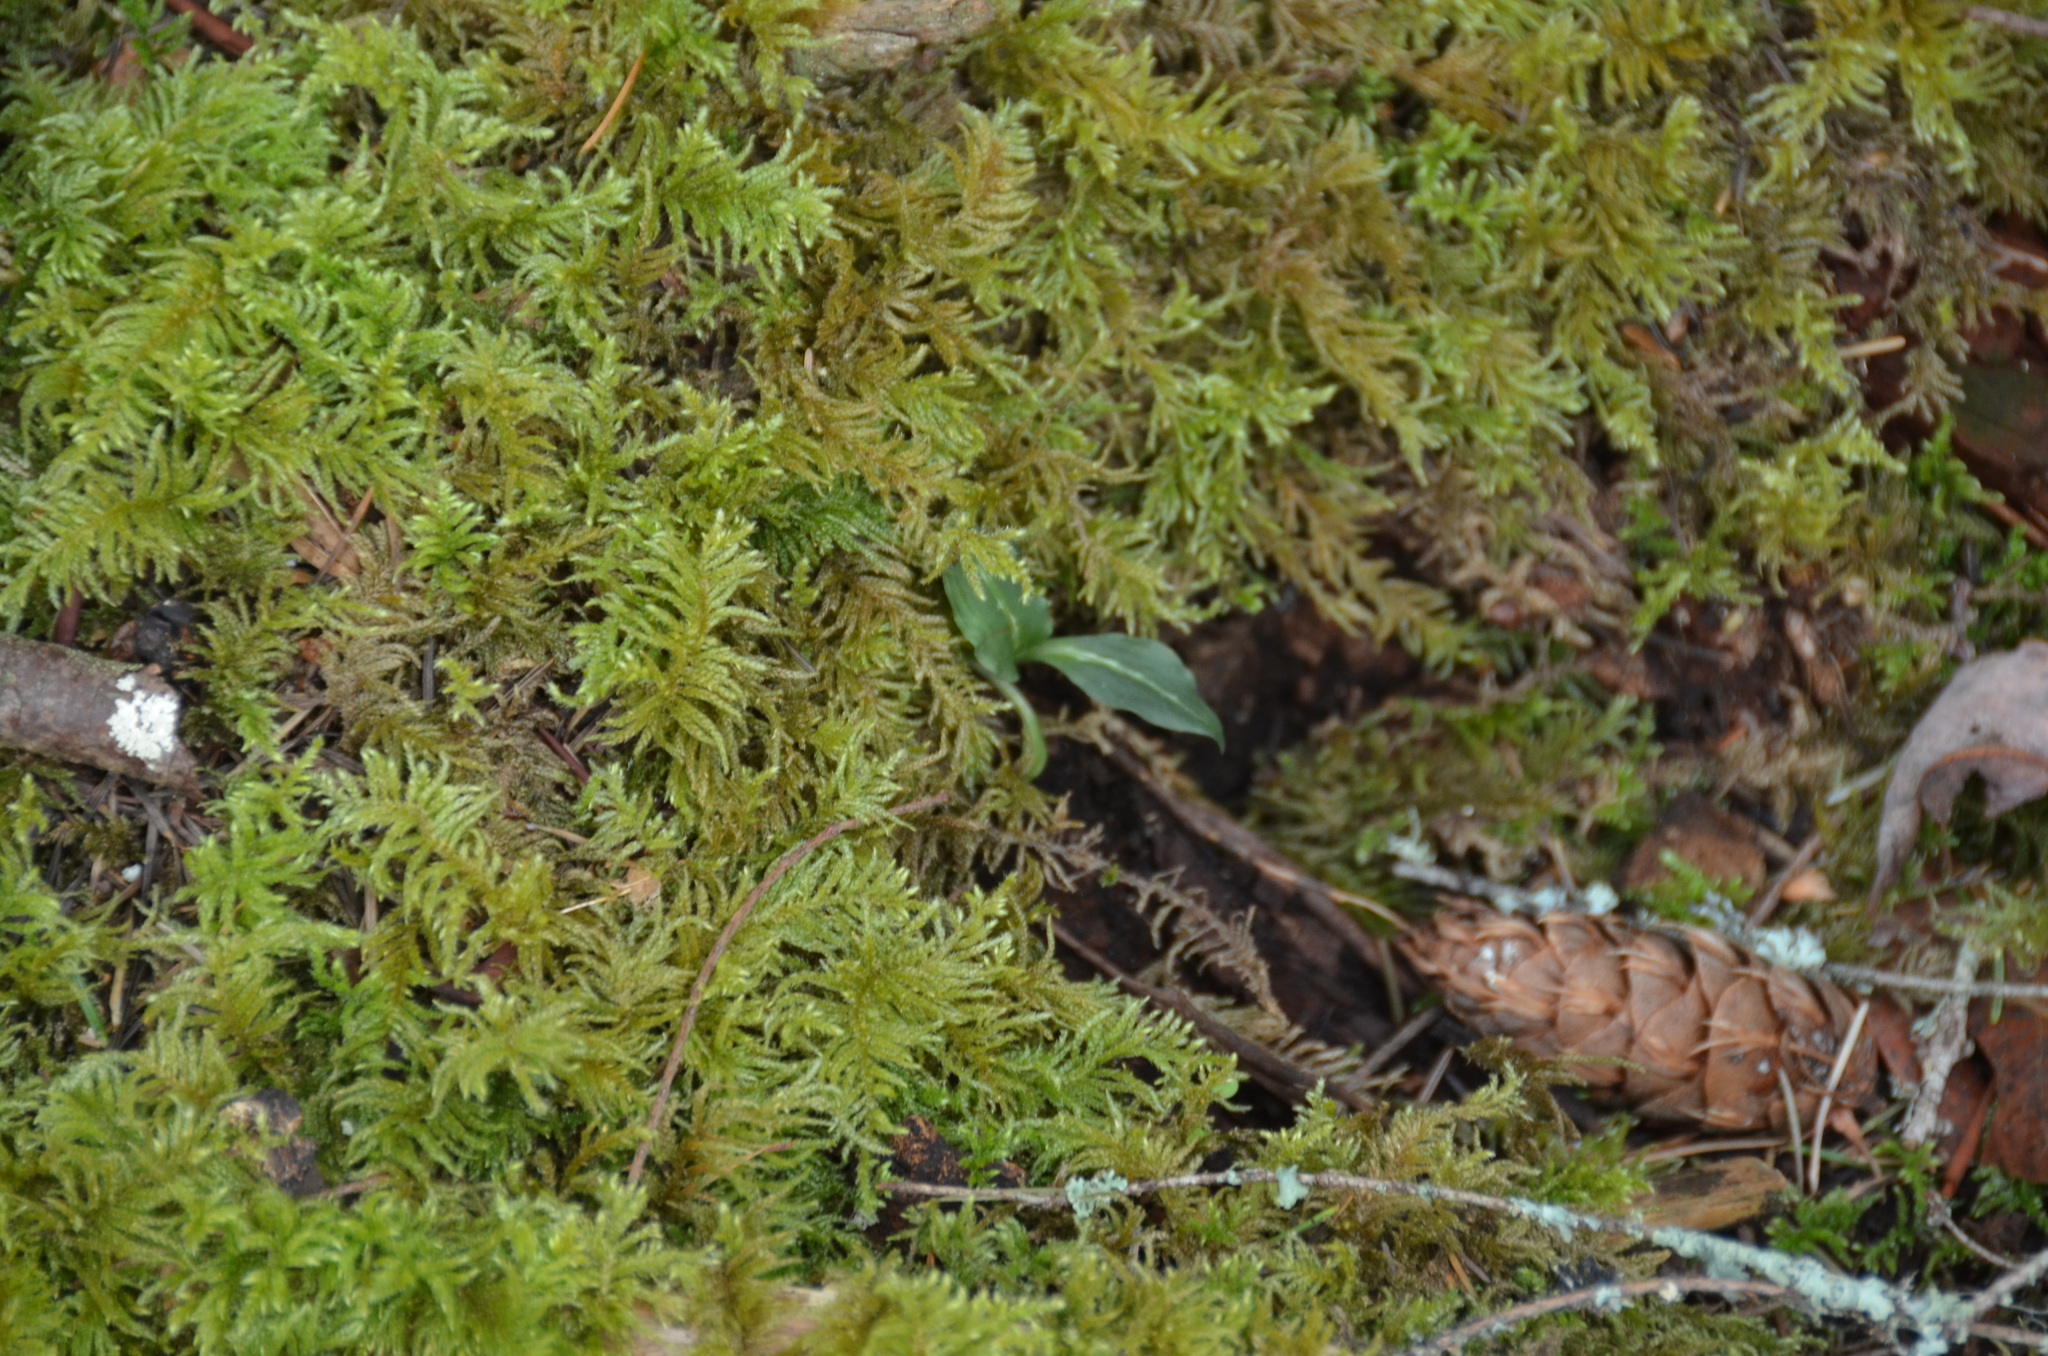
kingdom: Plantae
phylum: Tracheophyta
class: Liliopsida
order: Asparagales
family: Orchidaceae
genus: Goodyera
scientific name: Goodyera oblongifolia
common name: Giant rattlesnake-plantain
